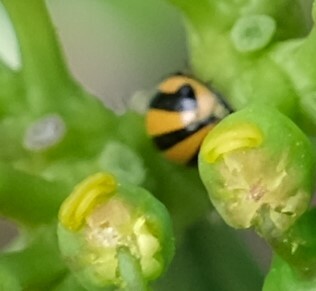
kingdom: Animalia
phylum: Arthropoda
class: Insecta
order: Coleoptera
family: Coccinellidae
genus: Micraspis
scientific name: Micraspis frenata
